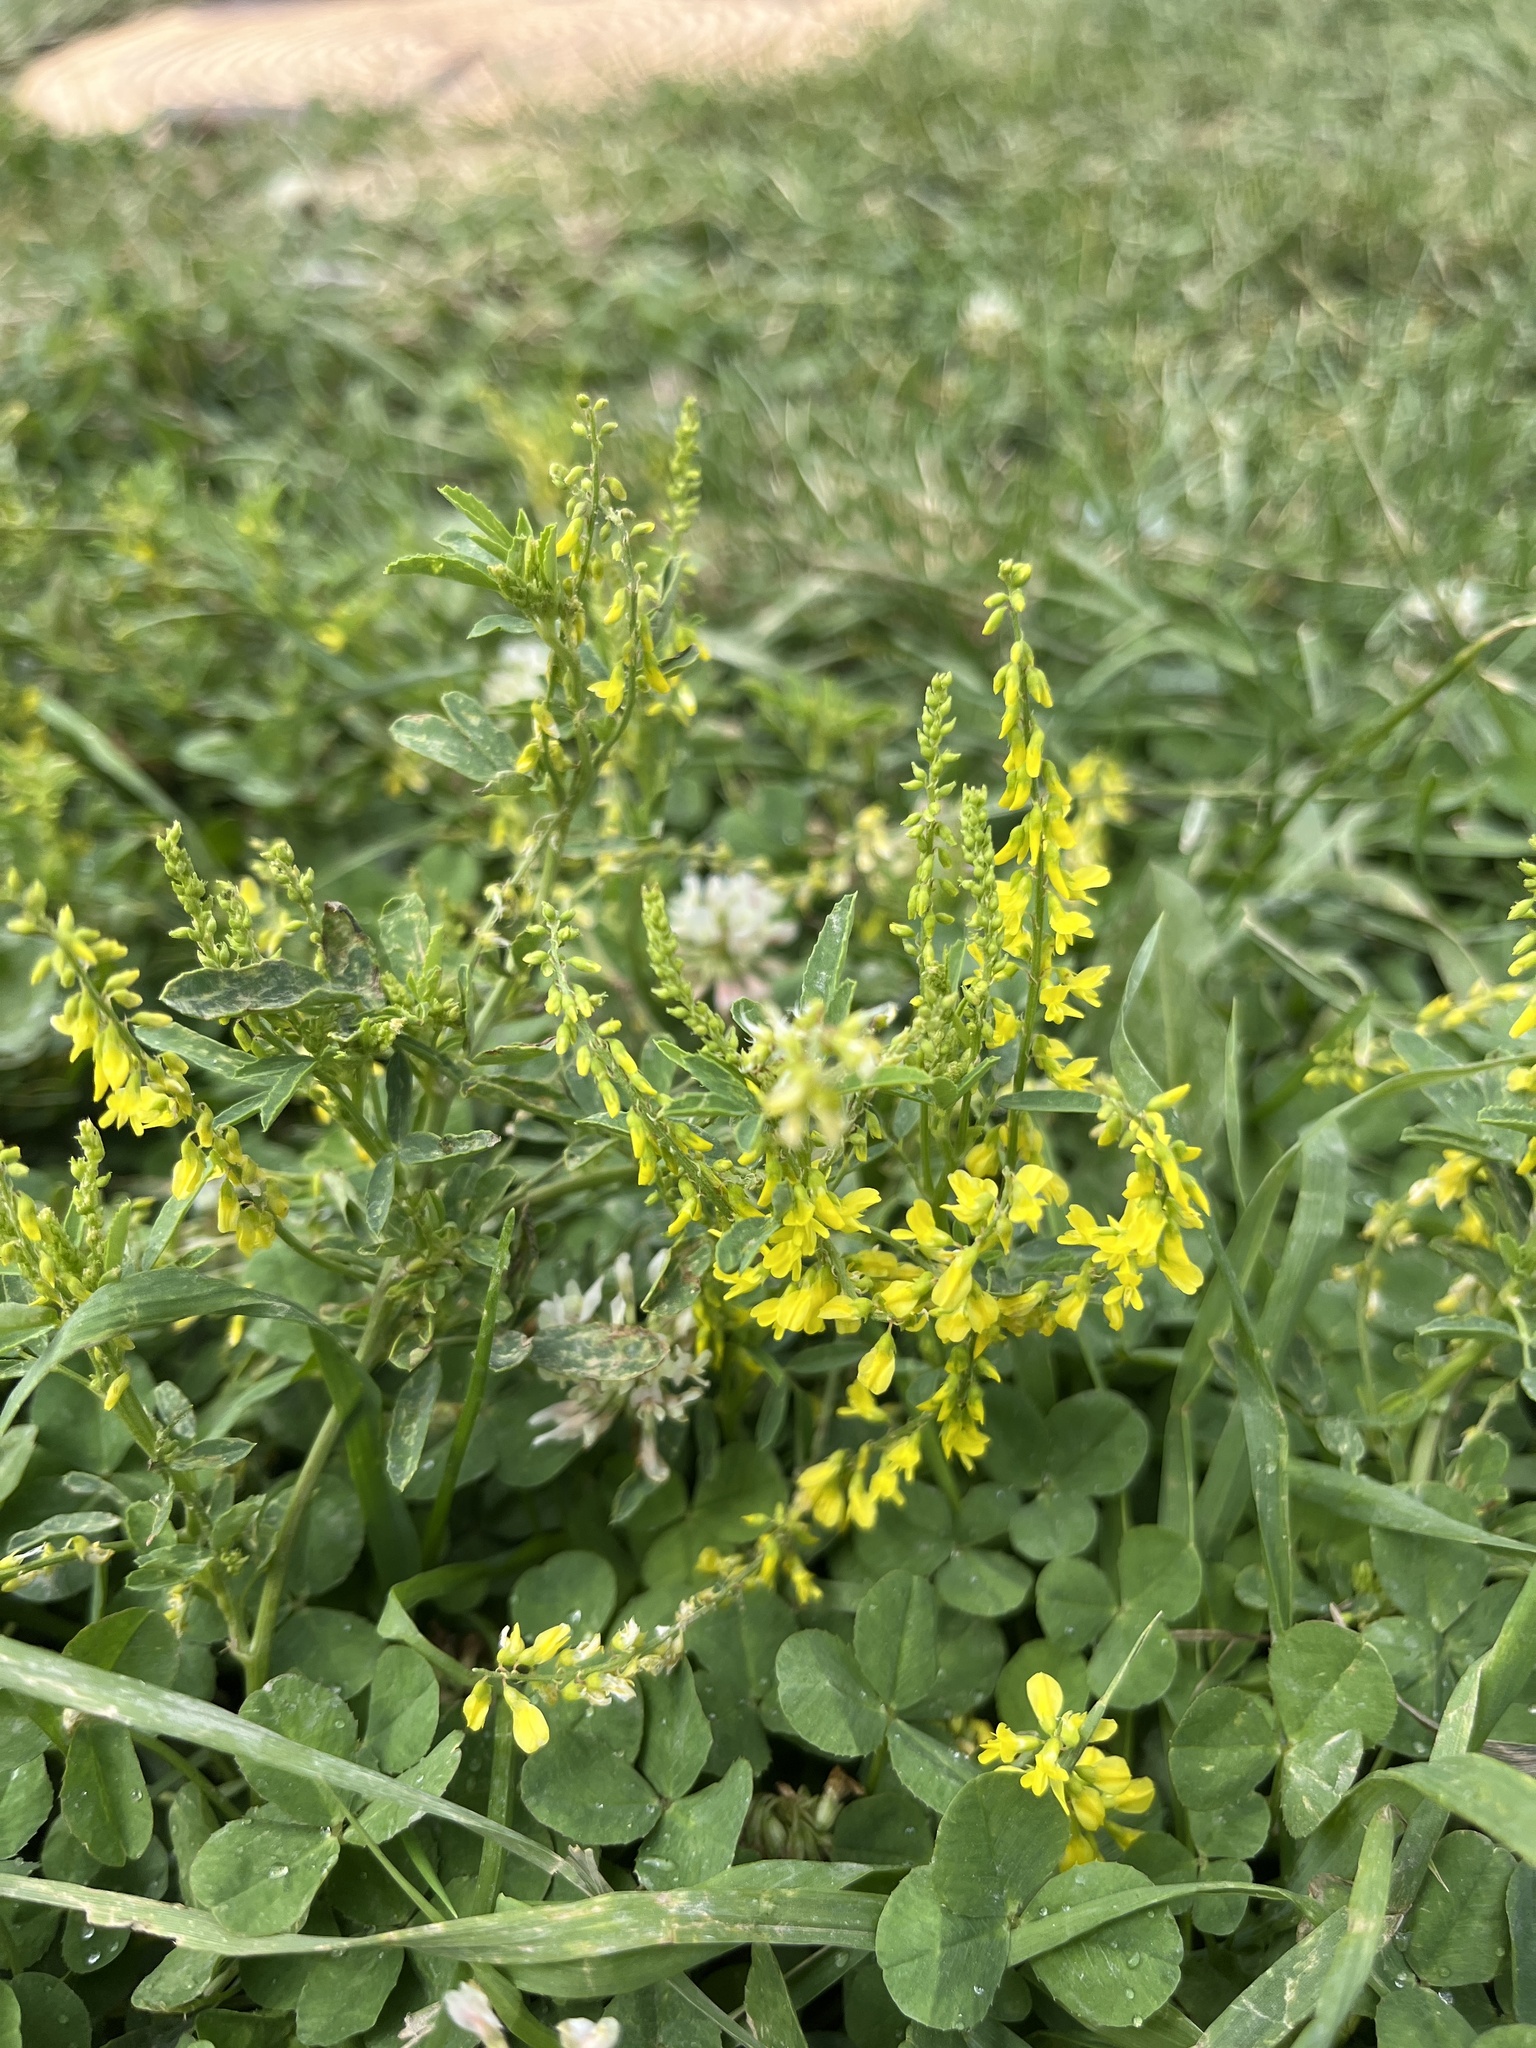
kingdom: Plantae
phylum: Tracheophyta
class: Magnoliopsida
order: Fabales
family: Fabaceae
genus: Melilotus
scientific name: Melilotus officinalis
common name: Sweetclover
